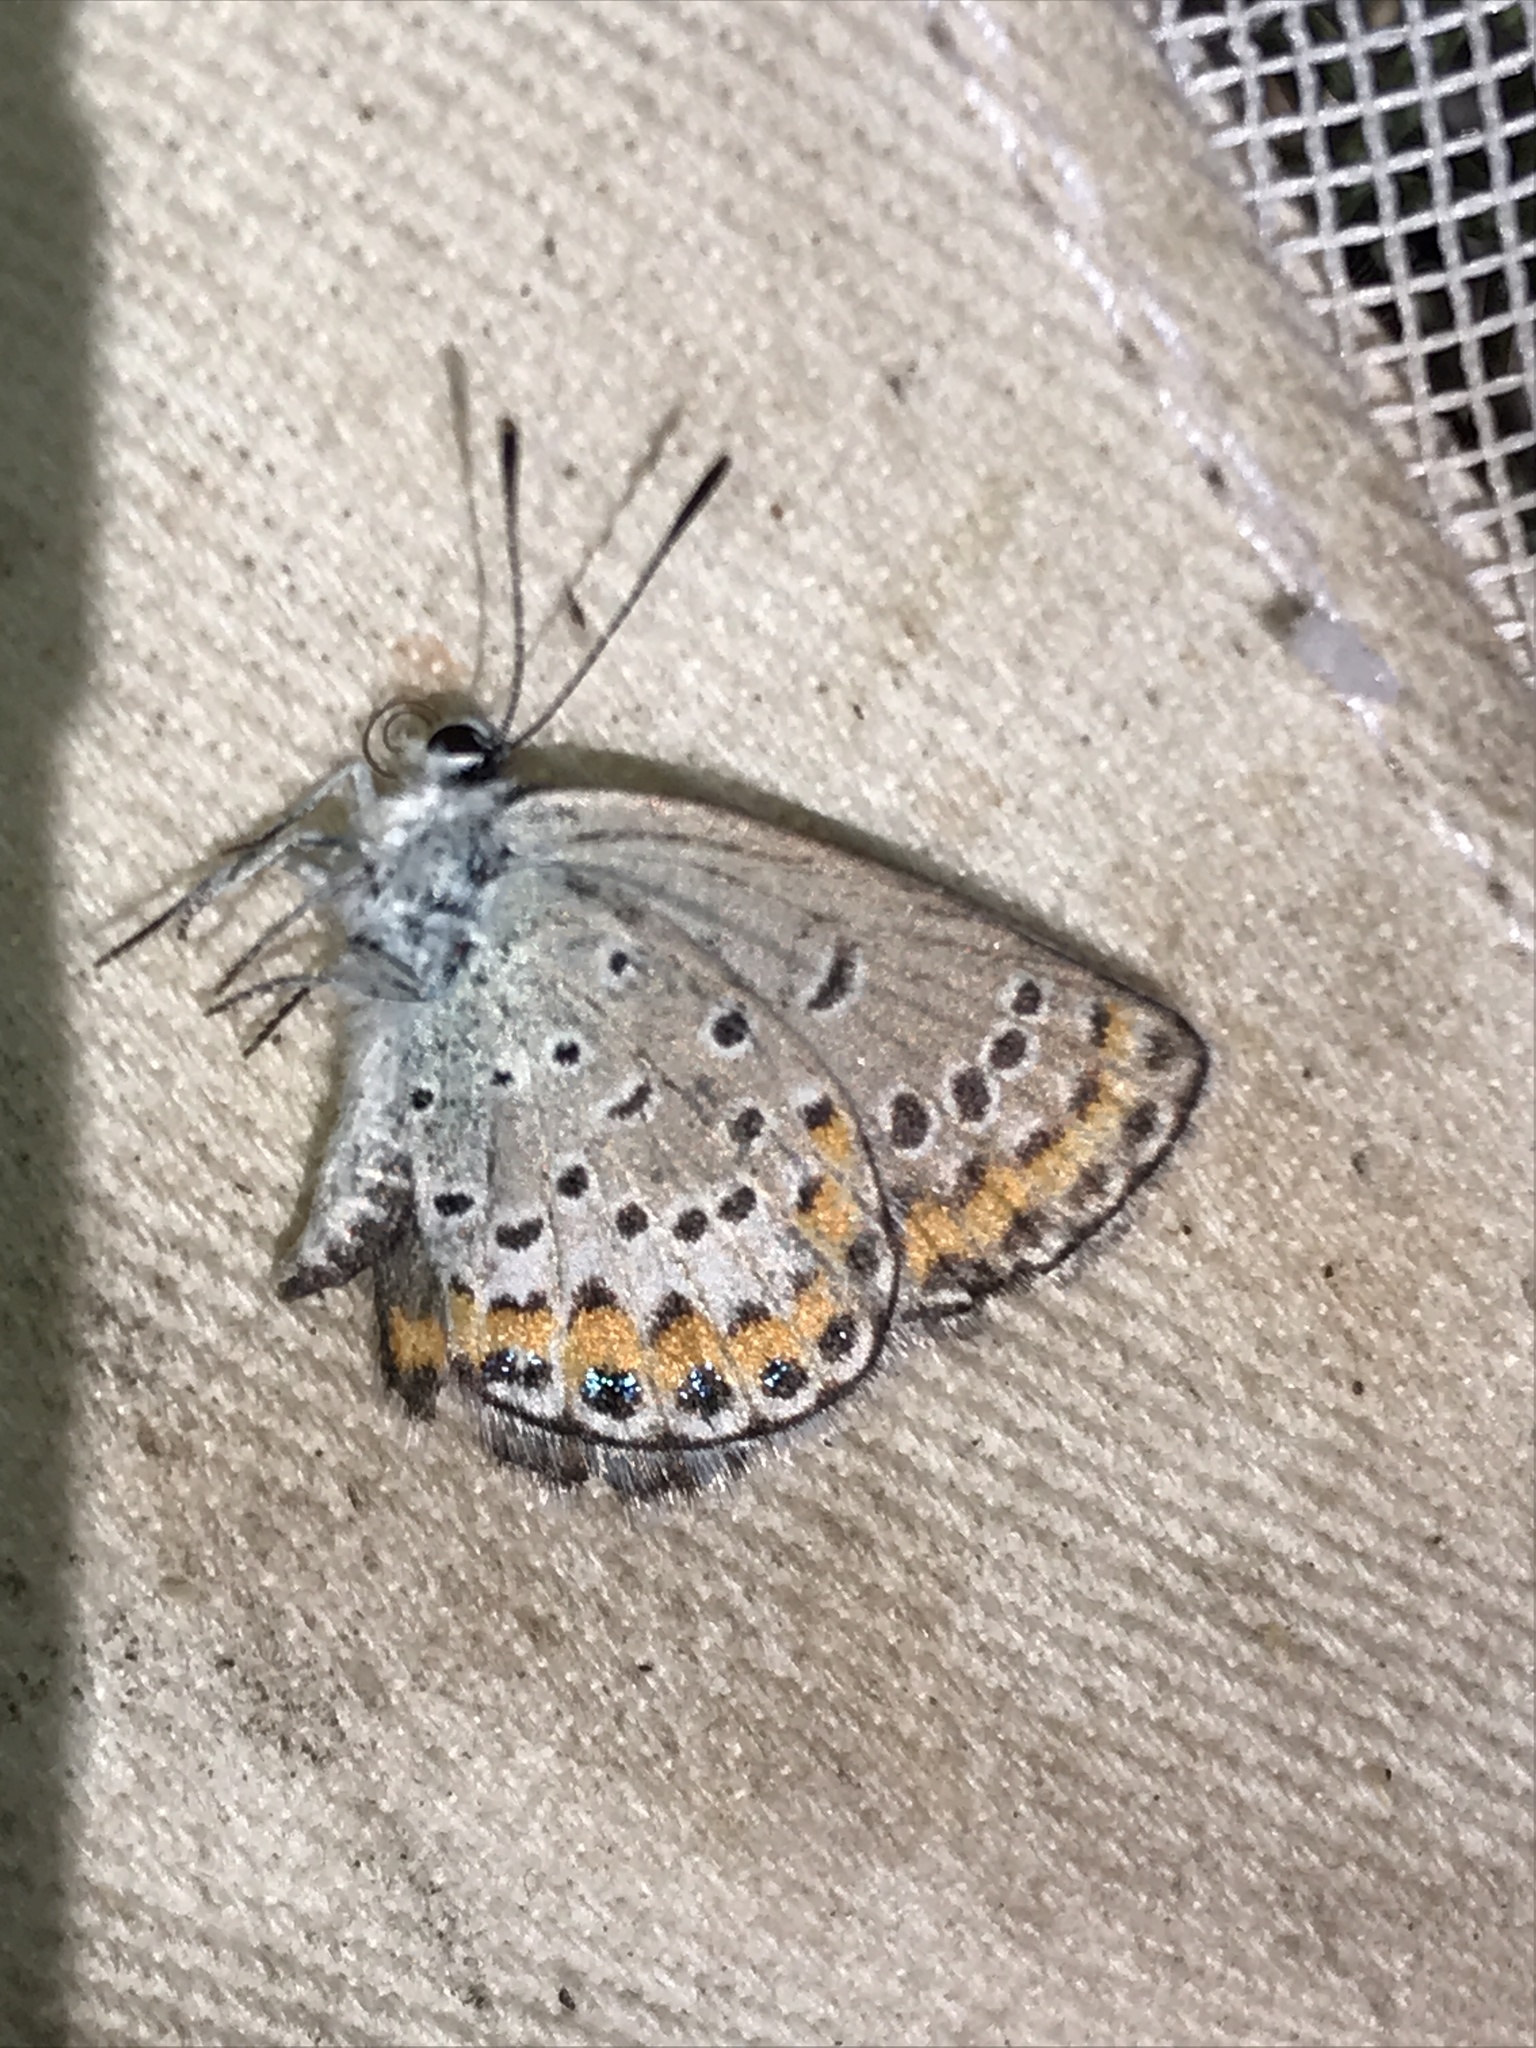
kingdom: Animalia
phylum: Arthropoda
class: Insecta
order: Lepidoptera
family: Lycaenidae
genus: Lycaeides
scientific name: Lycaeides melissa
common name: Melissa blue
